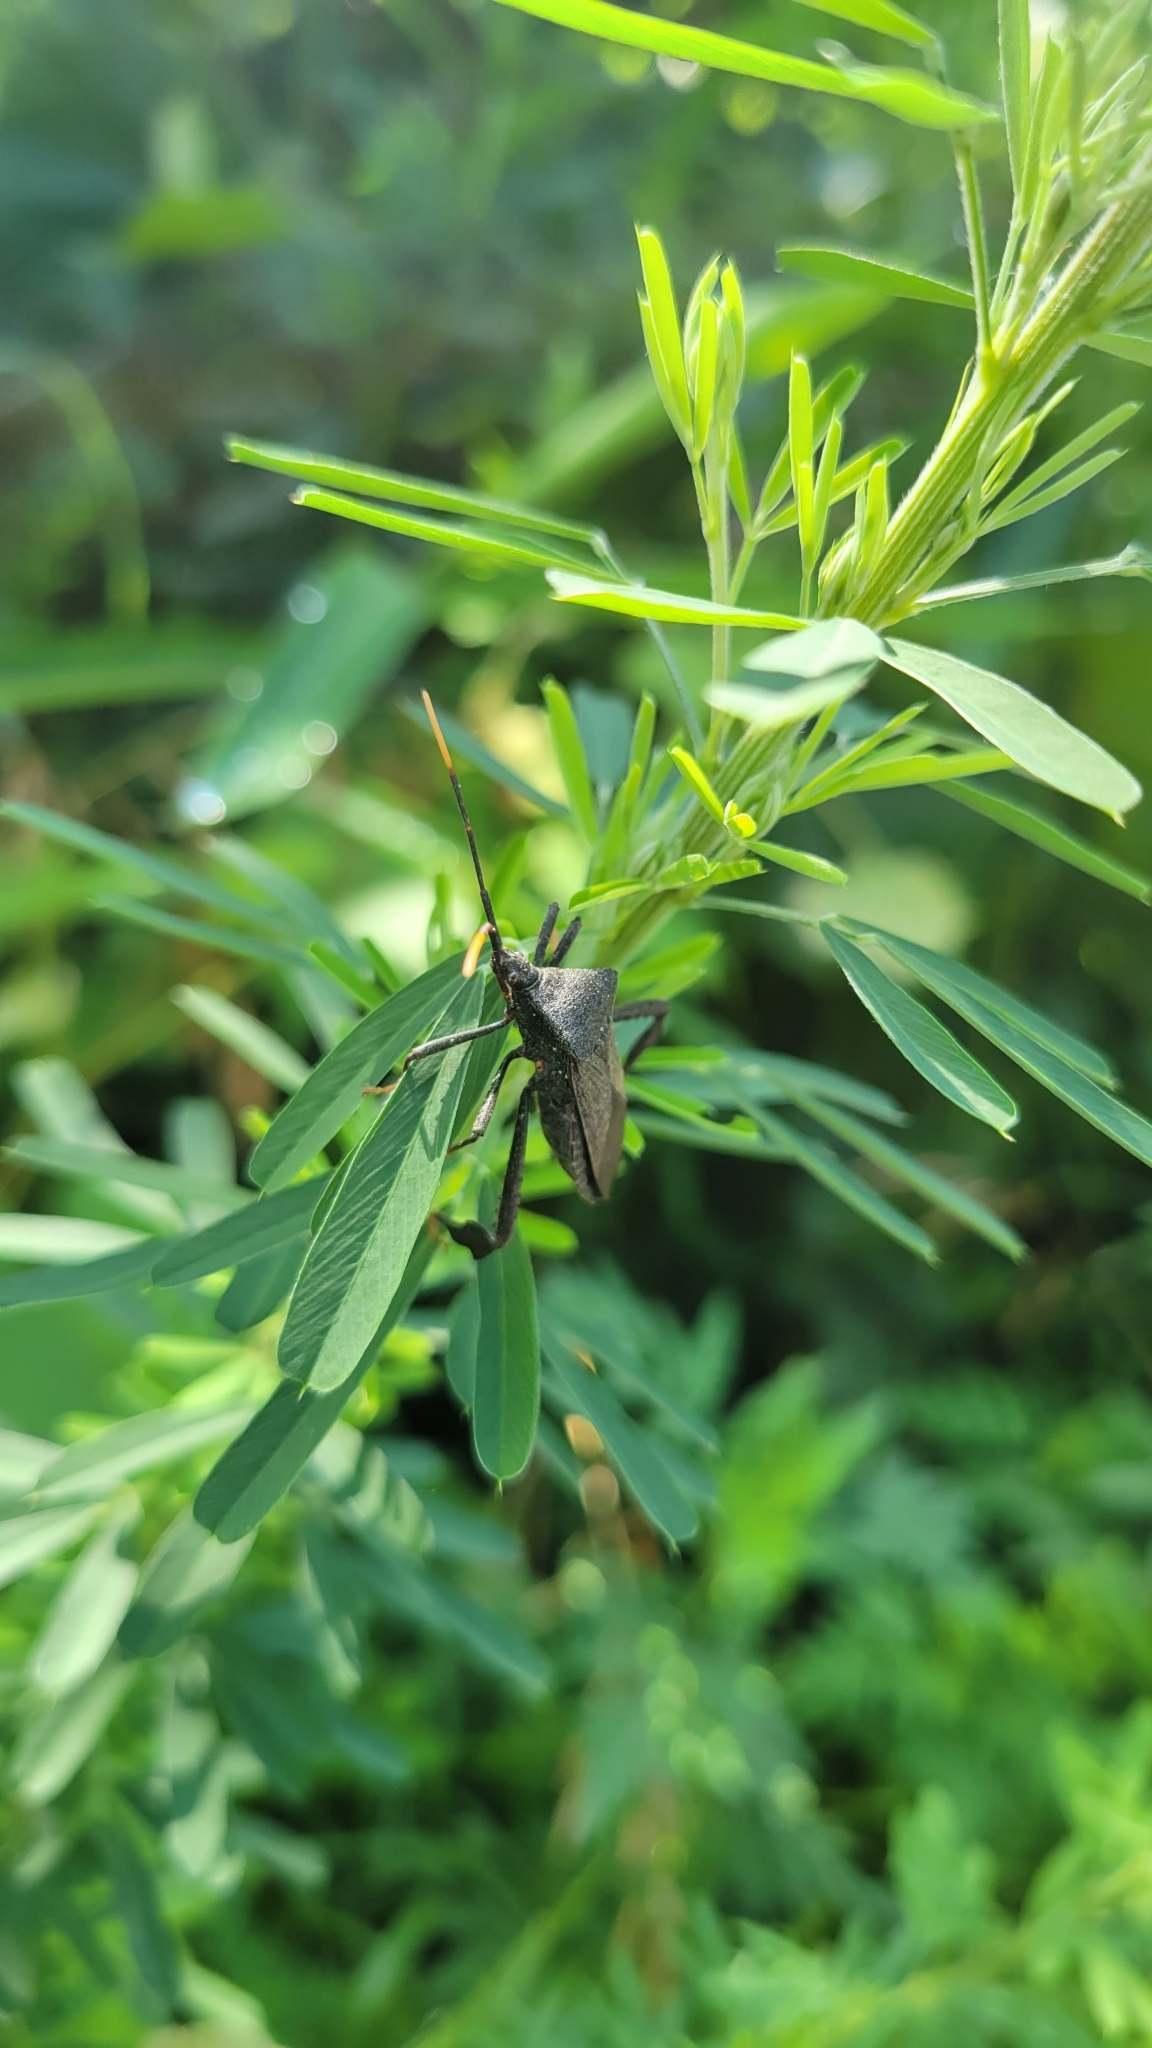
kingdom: Animalia
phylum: Arthropoda
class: Insecta
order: Hemiptera
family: Coreidae
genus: Acanthocephala
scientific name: Acanthocephala terminalis
